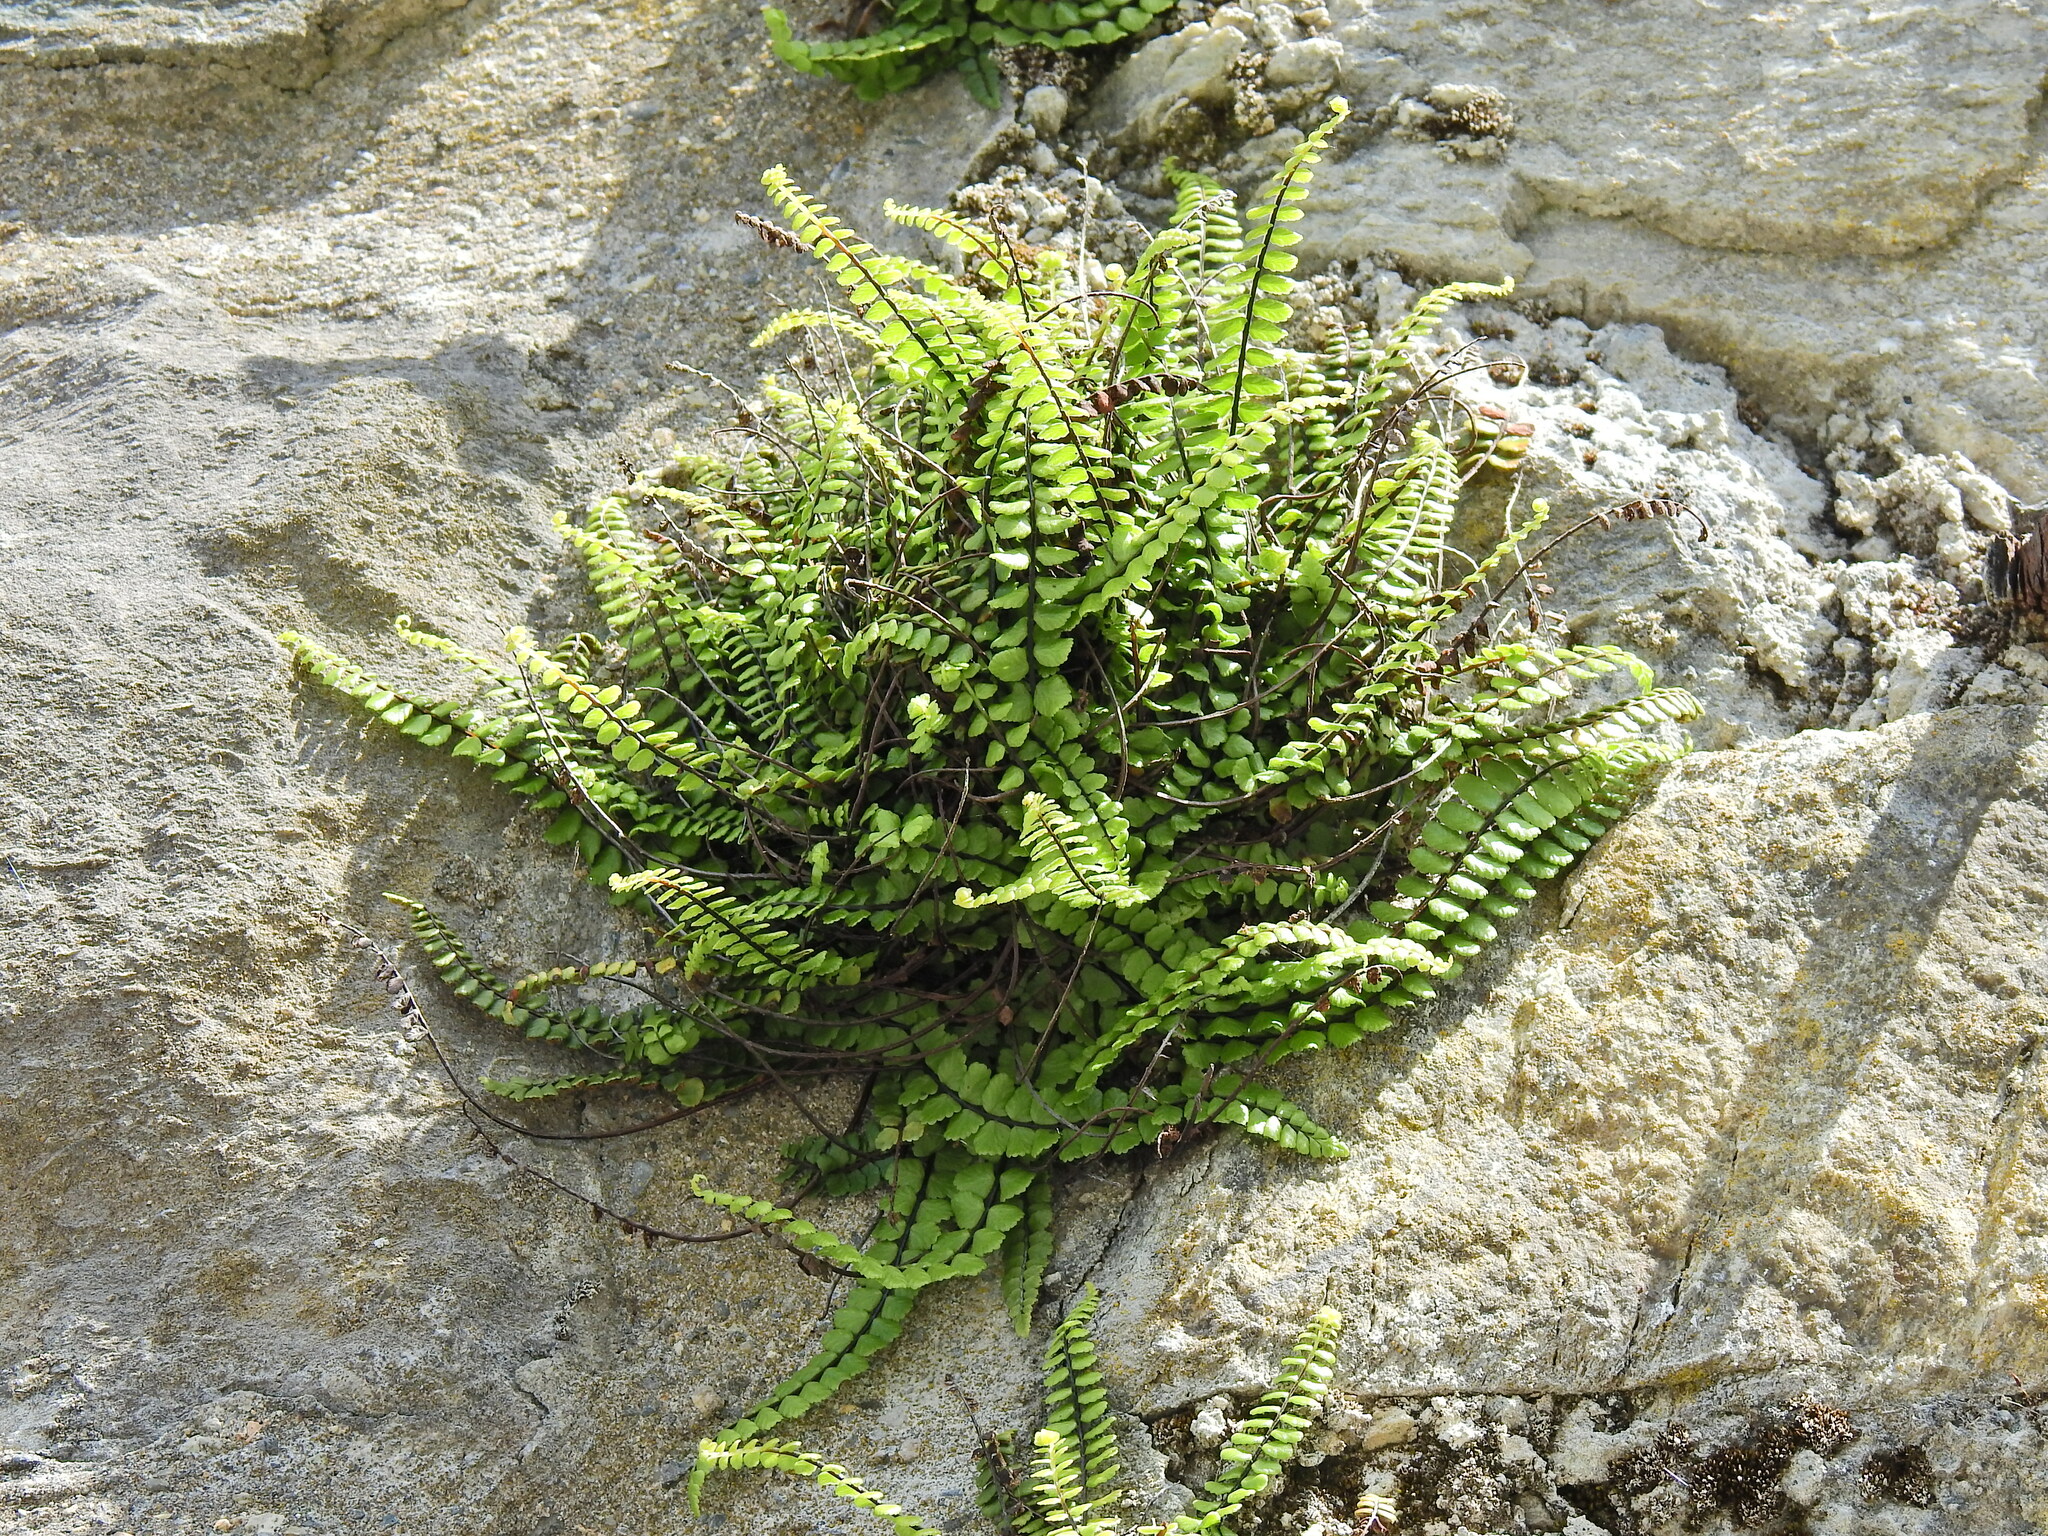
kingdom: Plantae
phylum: Tracheophyta
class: Polypodiopsida
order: Polypodiales
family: Aspleniaceae
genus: Asplenium
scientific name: Asplenium trichomanes
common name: Maidenhair spleenwort
